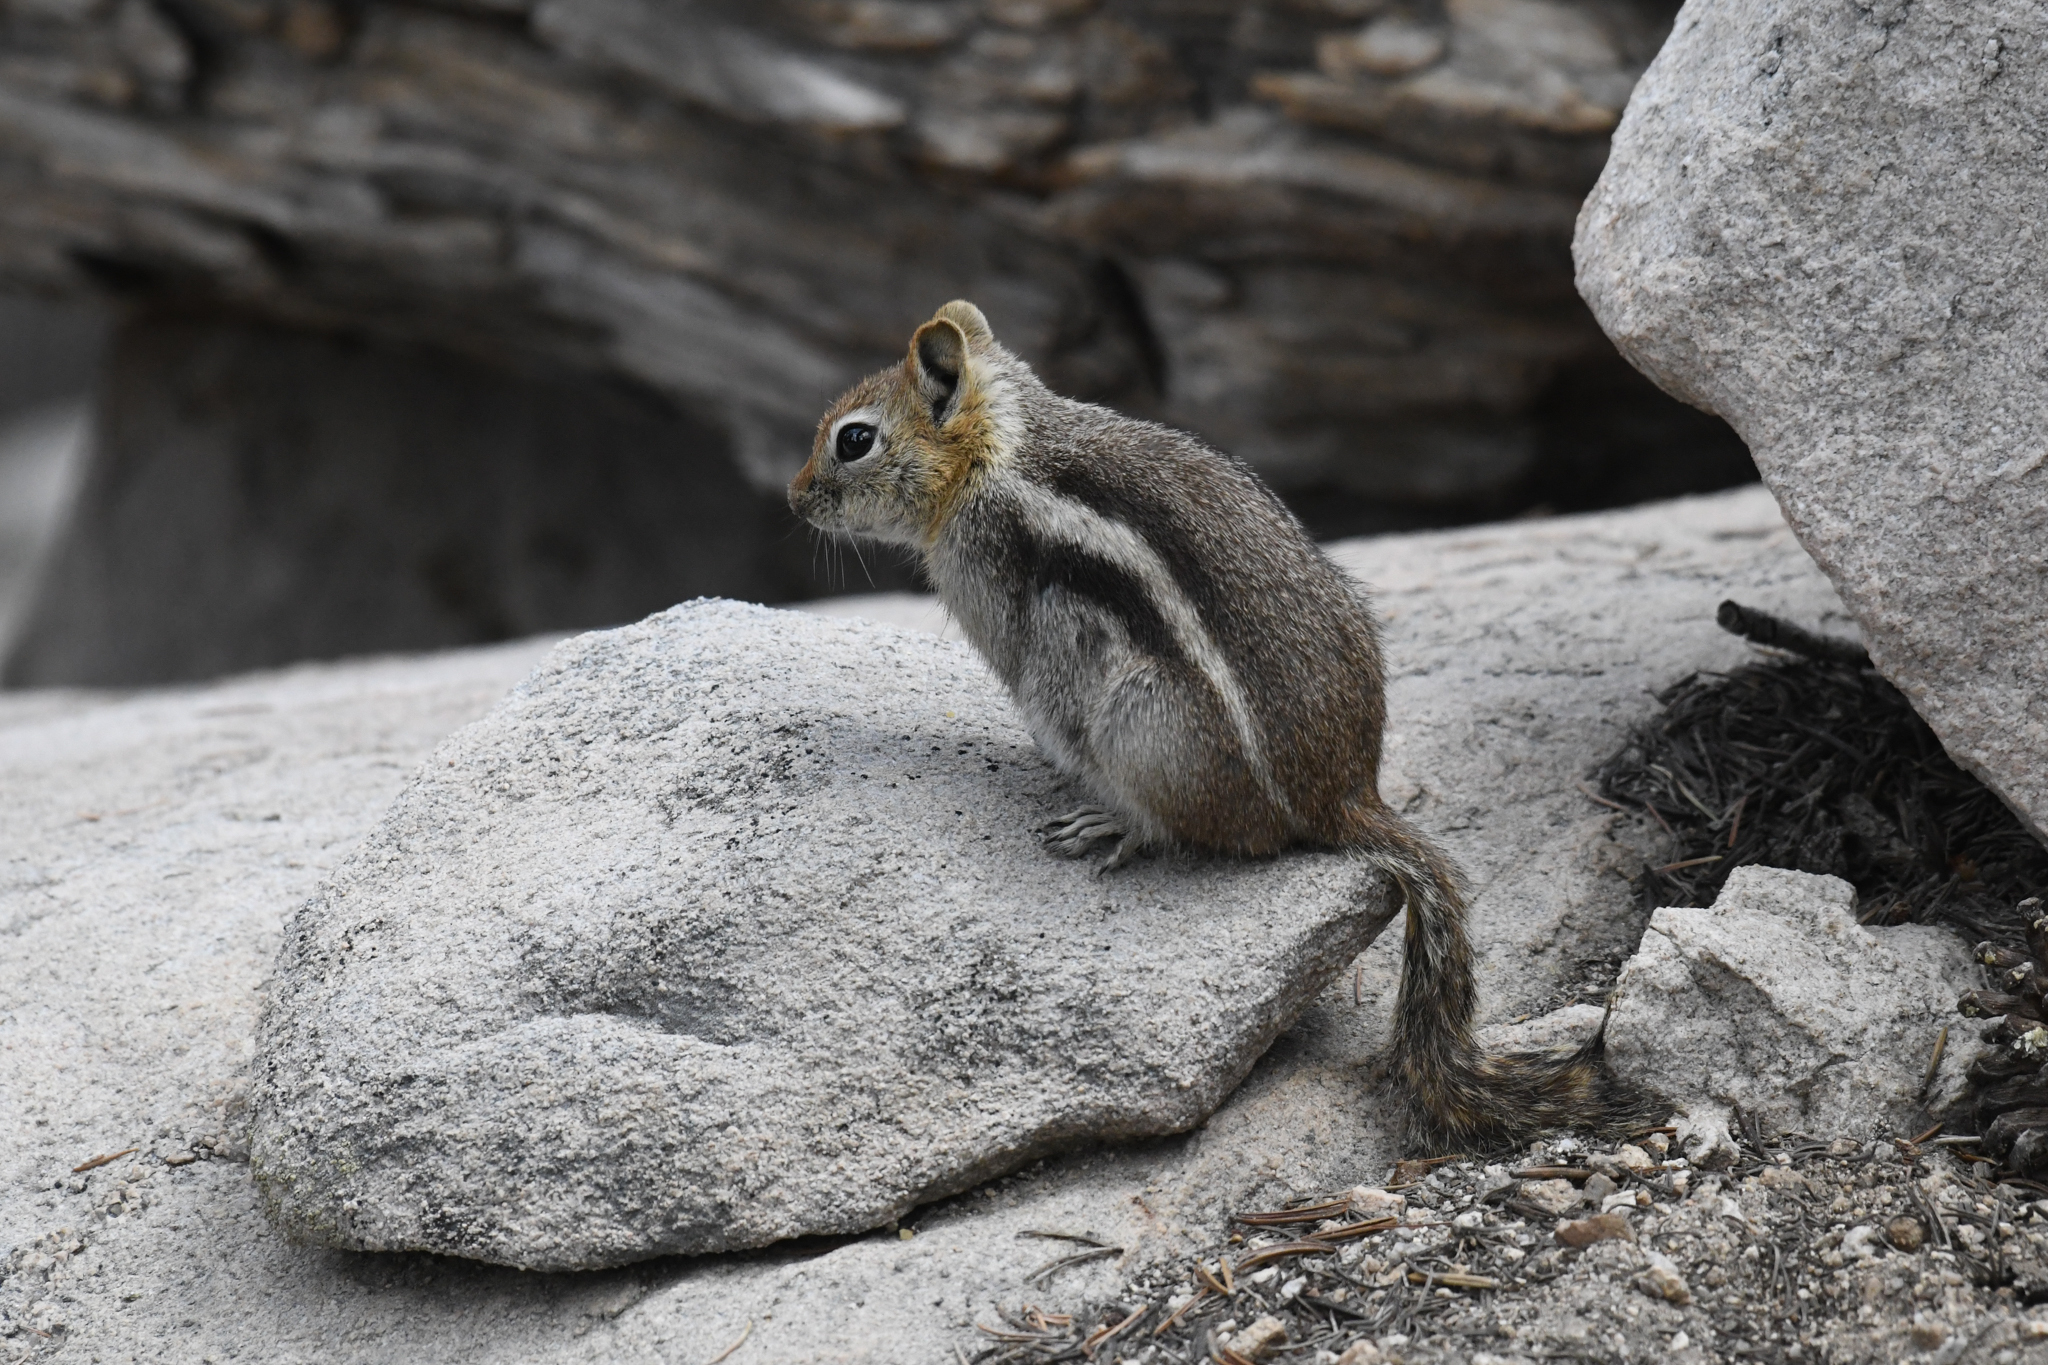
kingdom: Animalia
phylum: Chordata
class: Mammalia
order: Rodentia
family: Sciuridae
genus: Callospermophilus
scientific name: Callospermophilus lateralis
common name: Golden-mantled ground squirrel
